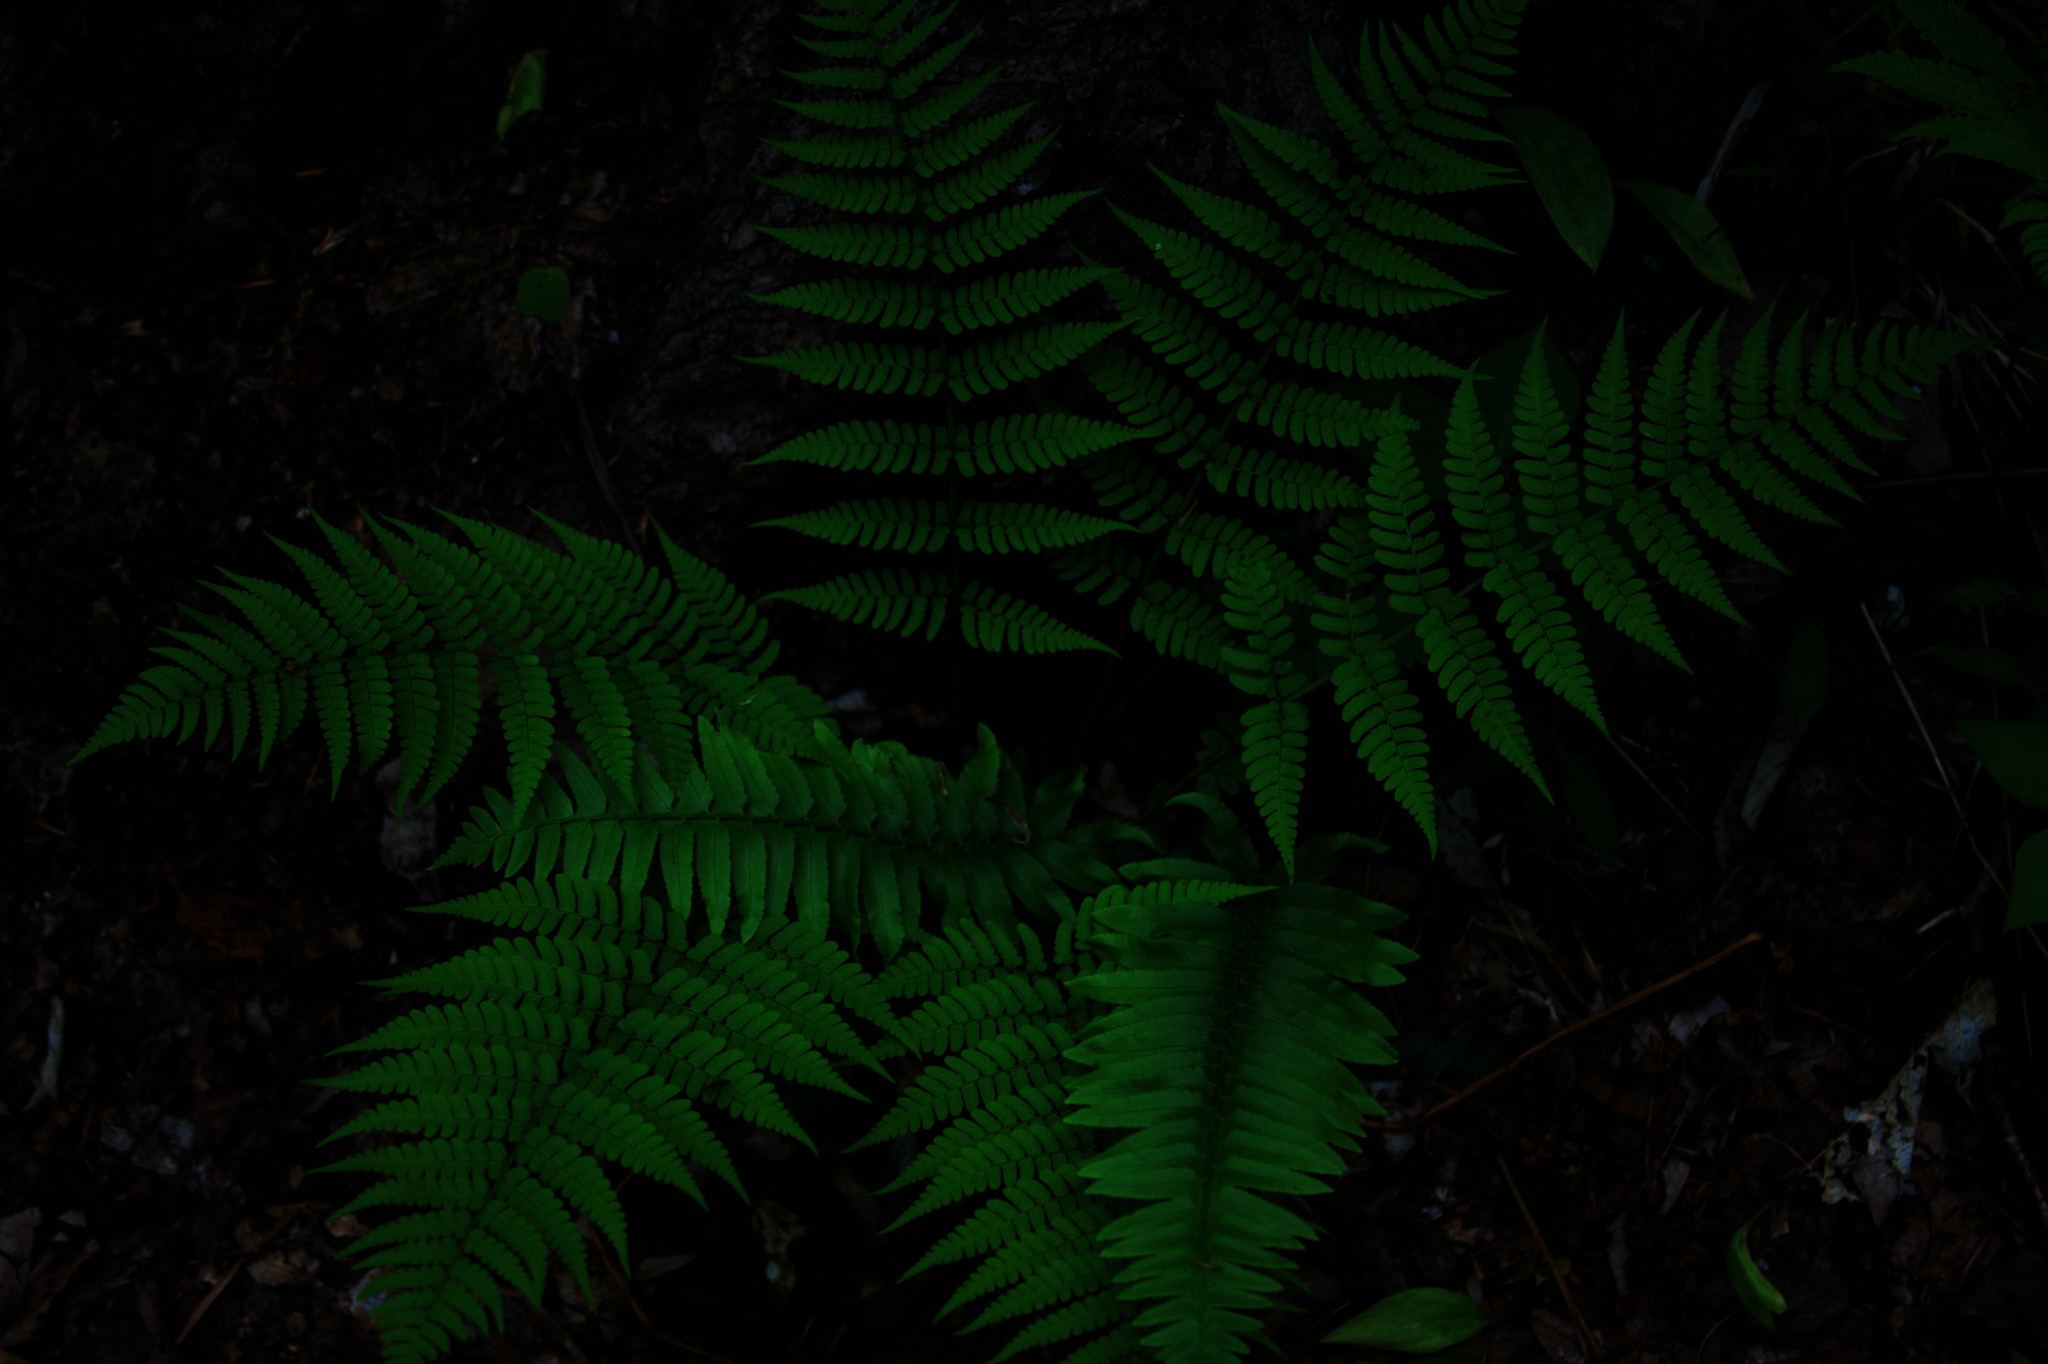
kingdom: Plantae
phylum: Tracheophyta
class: Polypodiopsida
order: Polypodiales
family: Dryopteridaceae
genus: Dryopteris
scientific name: Dryopteris marginalis
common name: Marginal wood fern
